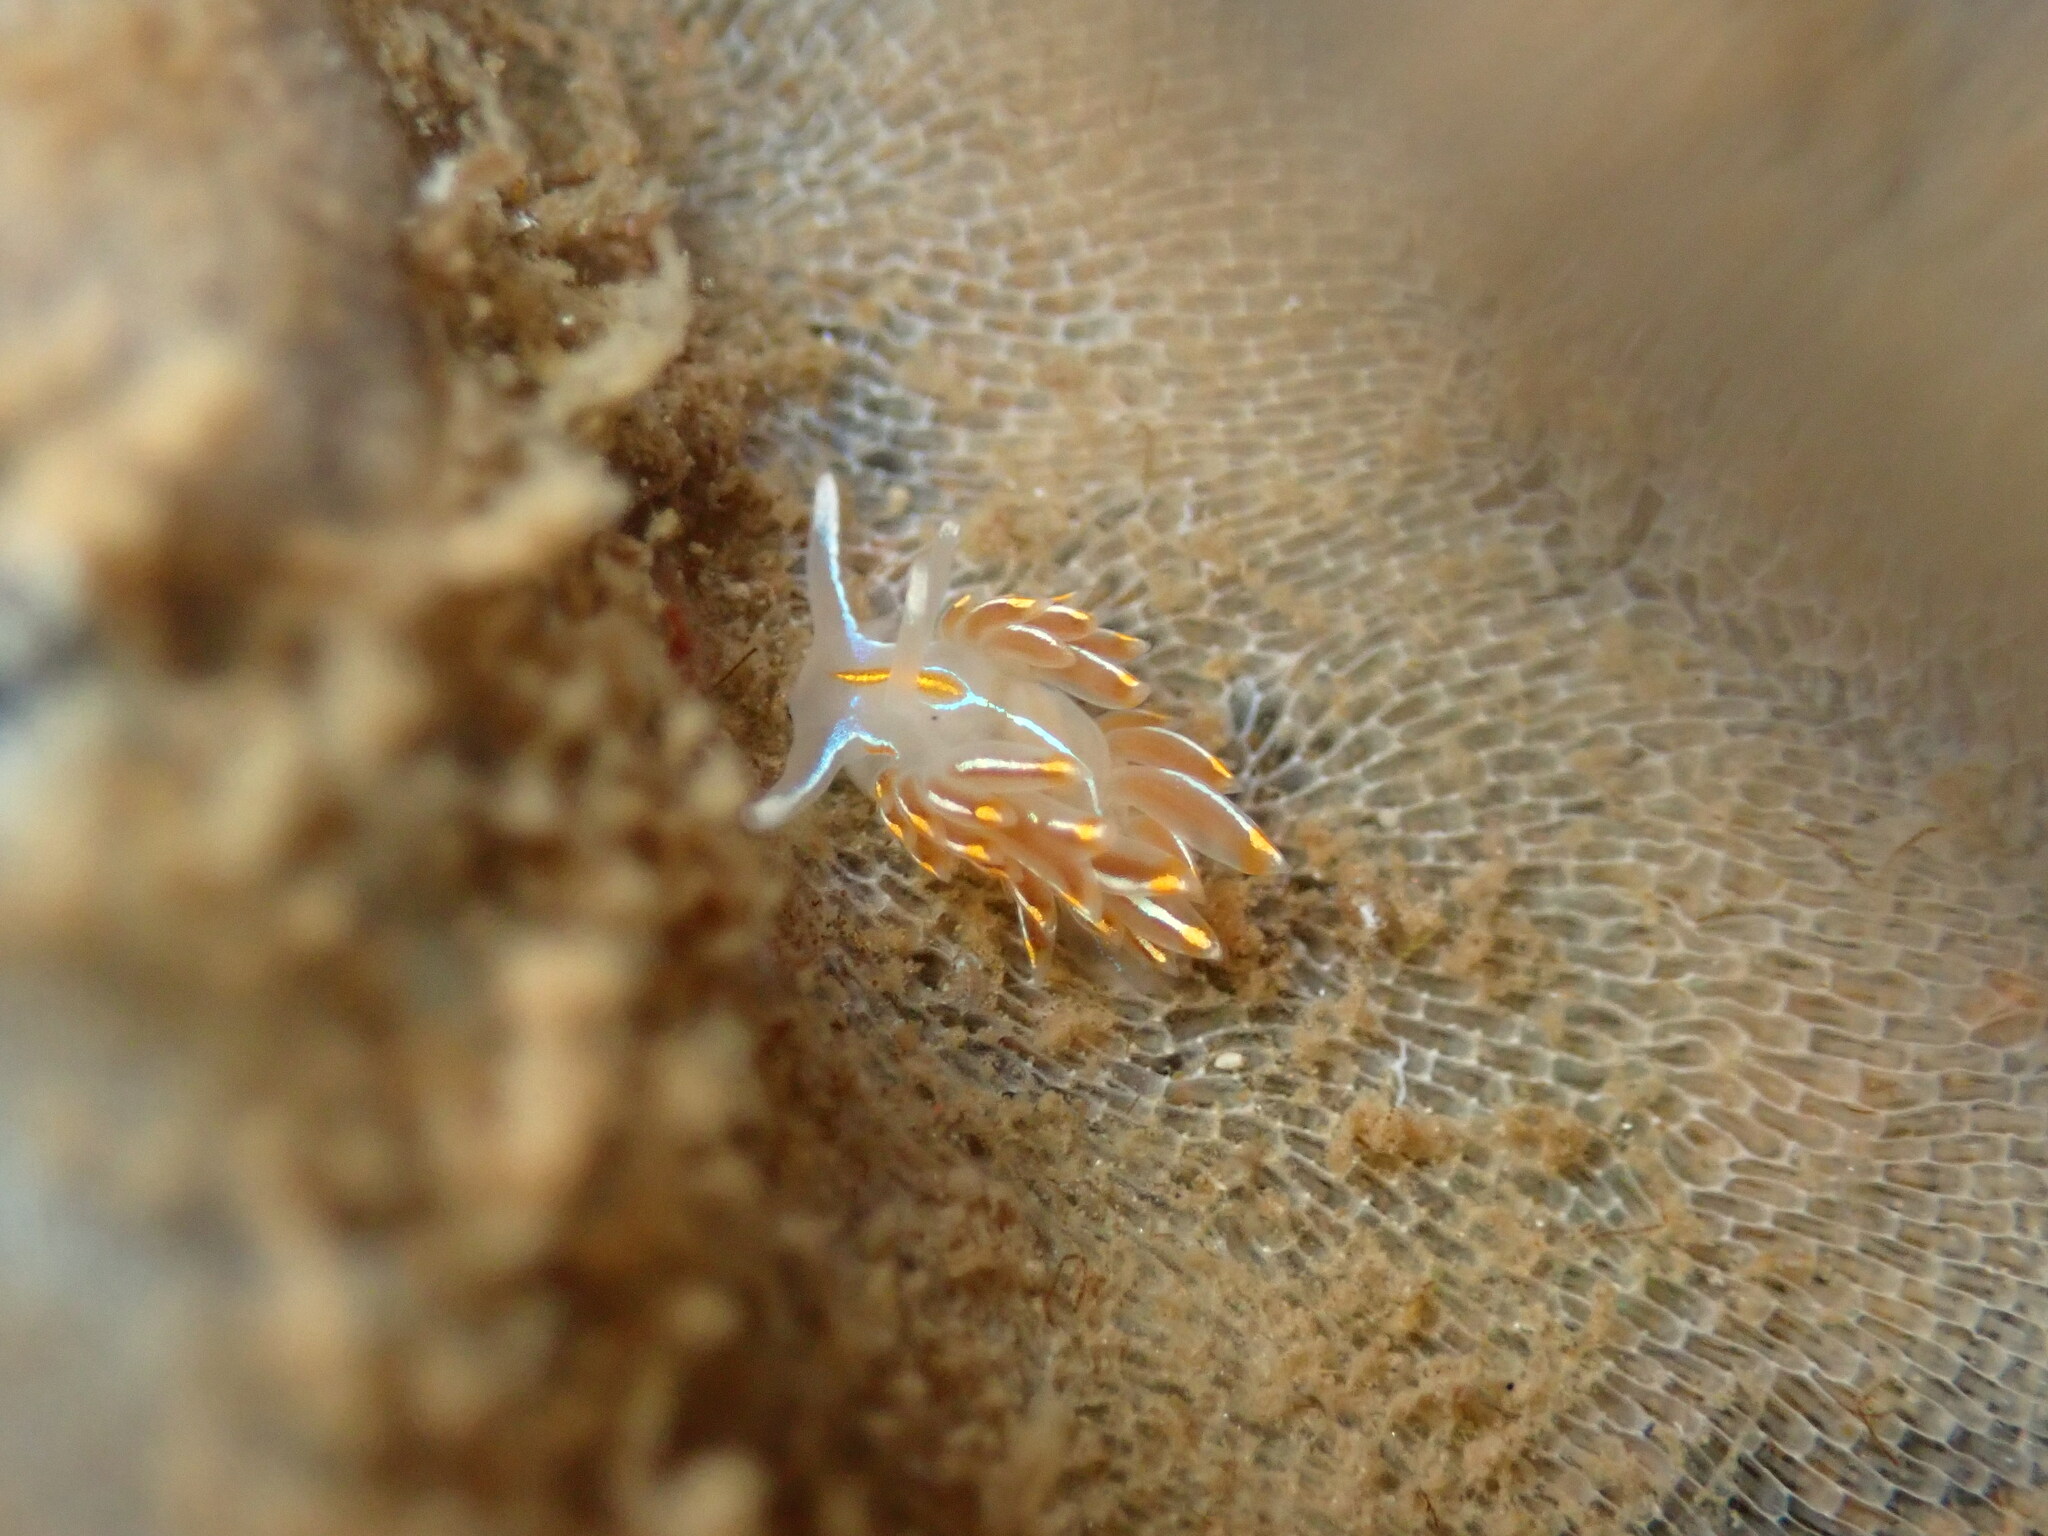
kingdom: Animalia
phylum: Mollusca
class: Gastropoda
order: Nudibranchia
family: Myrrhinidae
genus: Hermissenda
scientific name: Hermissenda crassicornis
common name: Hermissenda
